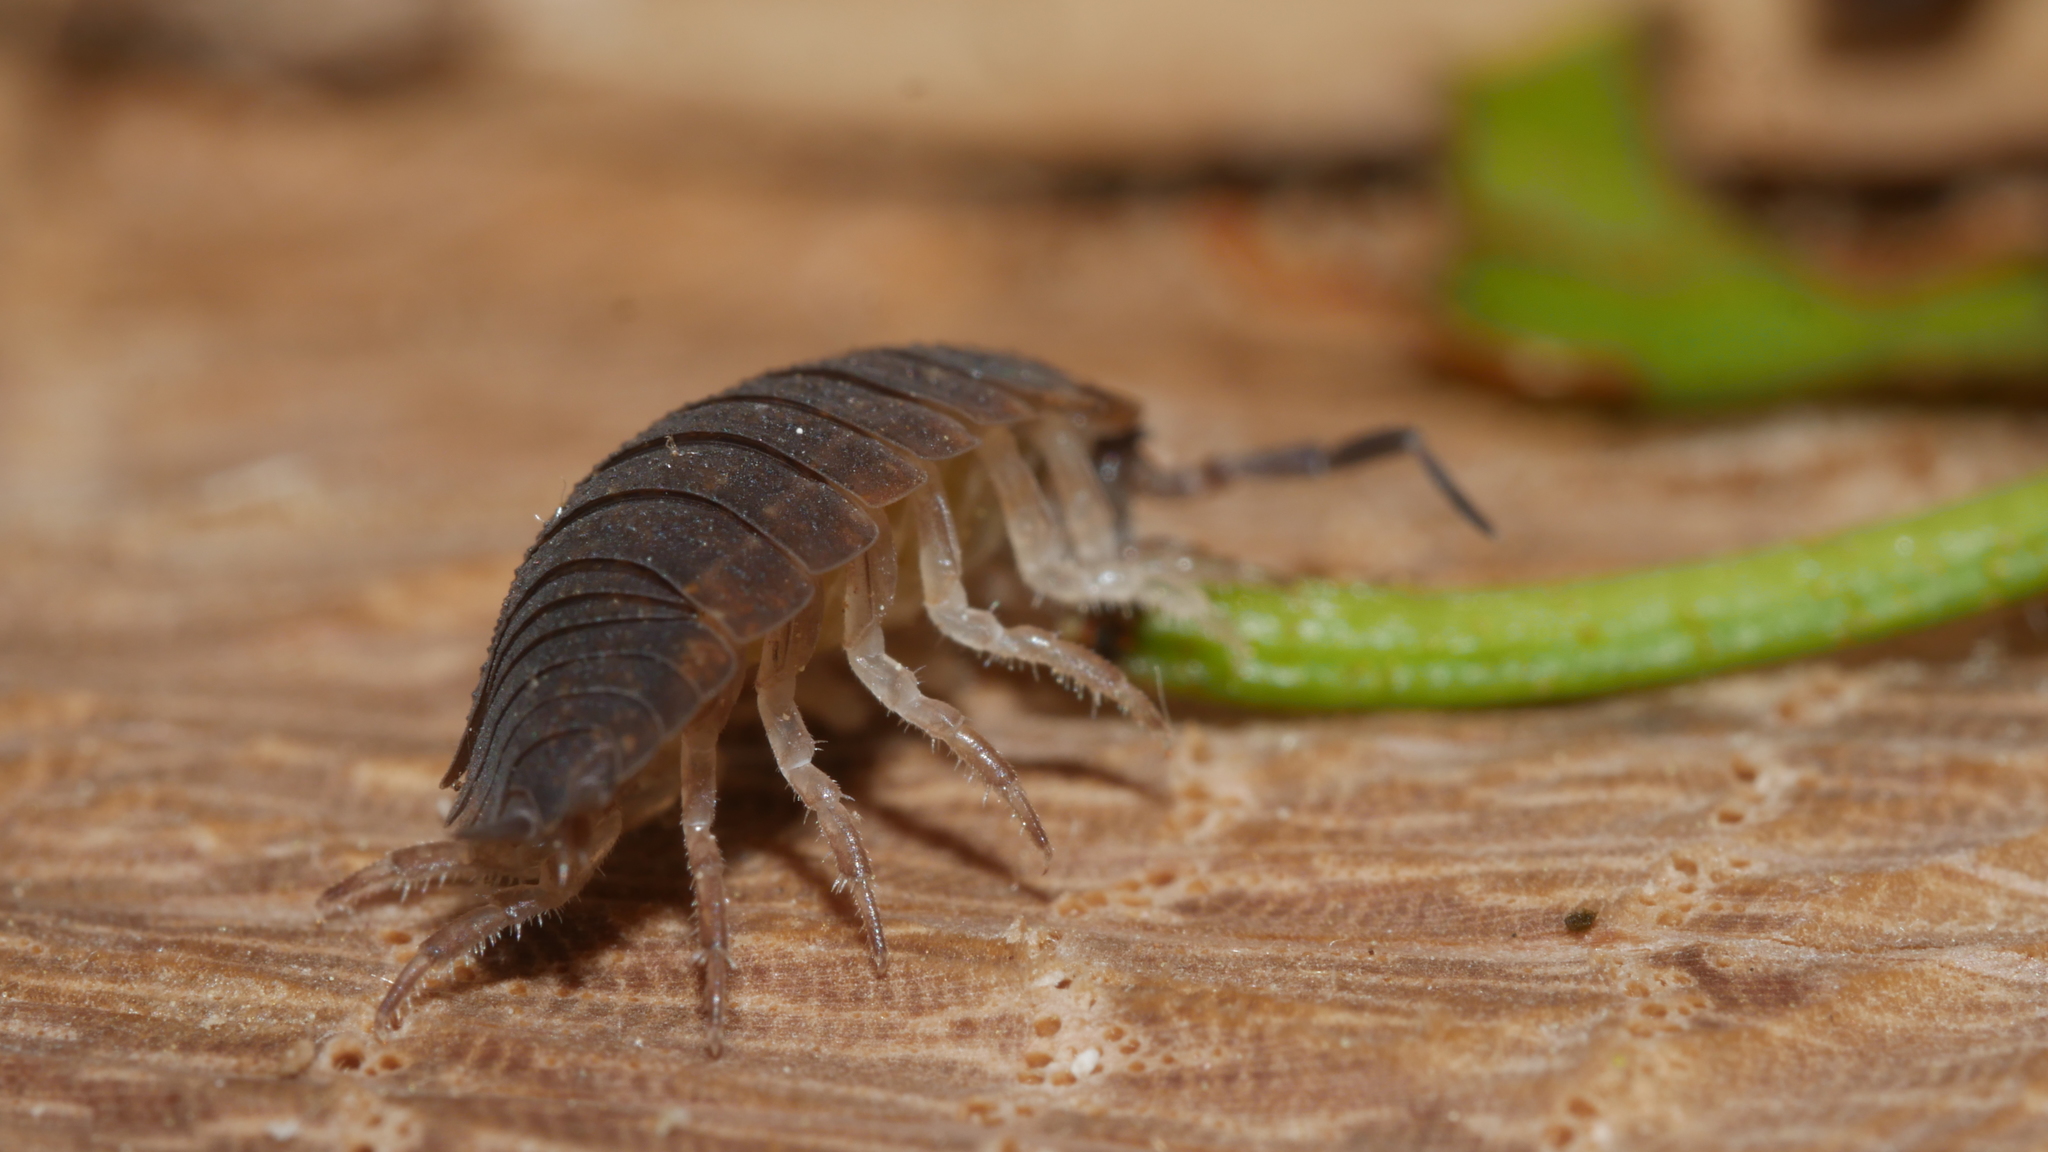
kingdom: Animalia
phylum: Arthropoda
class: Malacostraca
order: Isopoda
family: Porcellionidae
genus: Porcellio
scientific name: Porcellio scaber
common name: Common rough woodlouse
